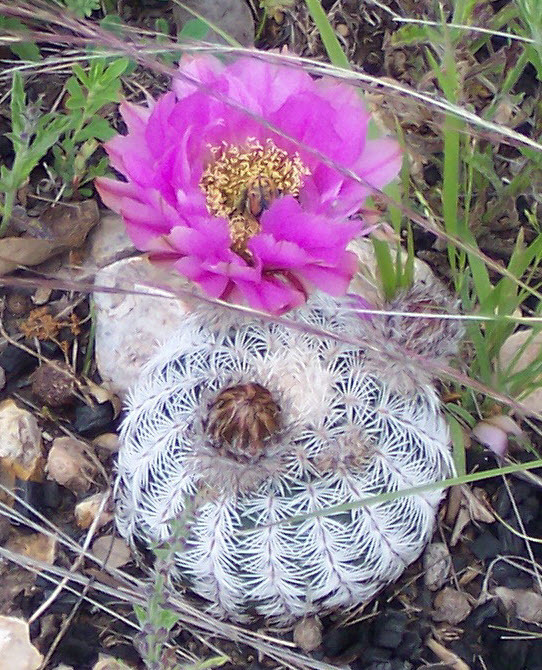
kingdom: Plantae
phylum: Tracheophyta
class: Magnoliopsida
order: Caryophyllales
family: Cactaceae
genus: Echinocereus
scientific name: Echinocereus reichenbachii
